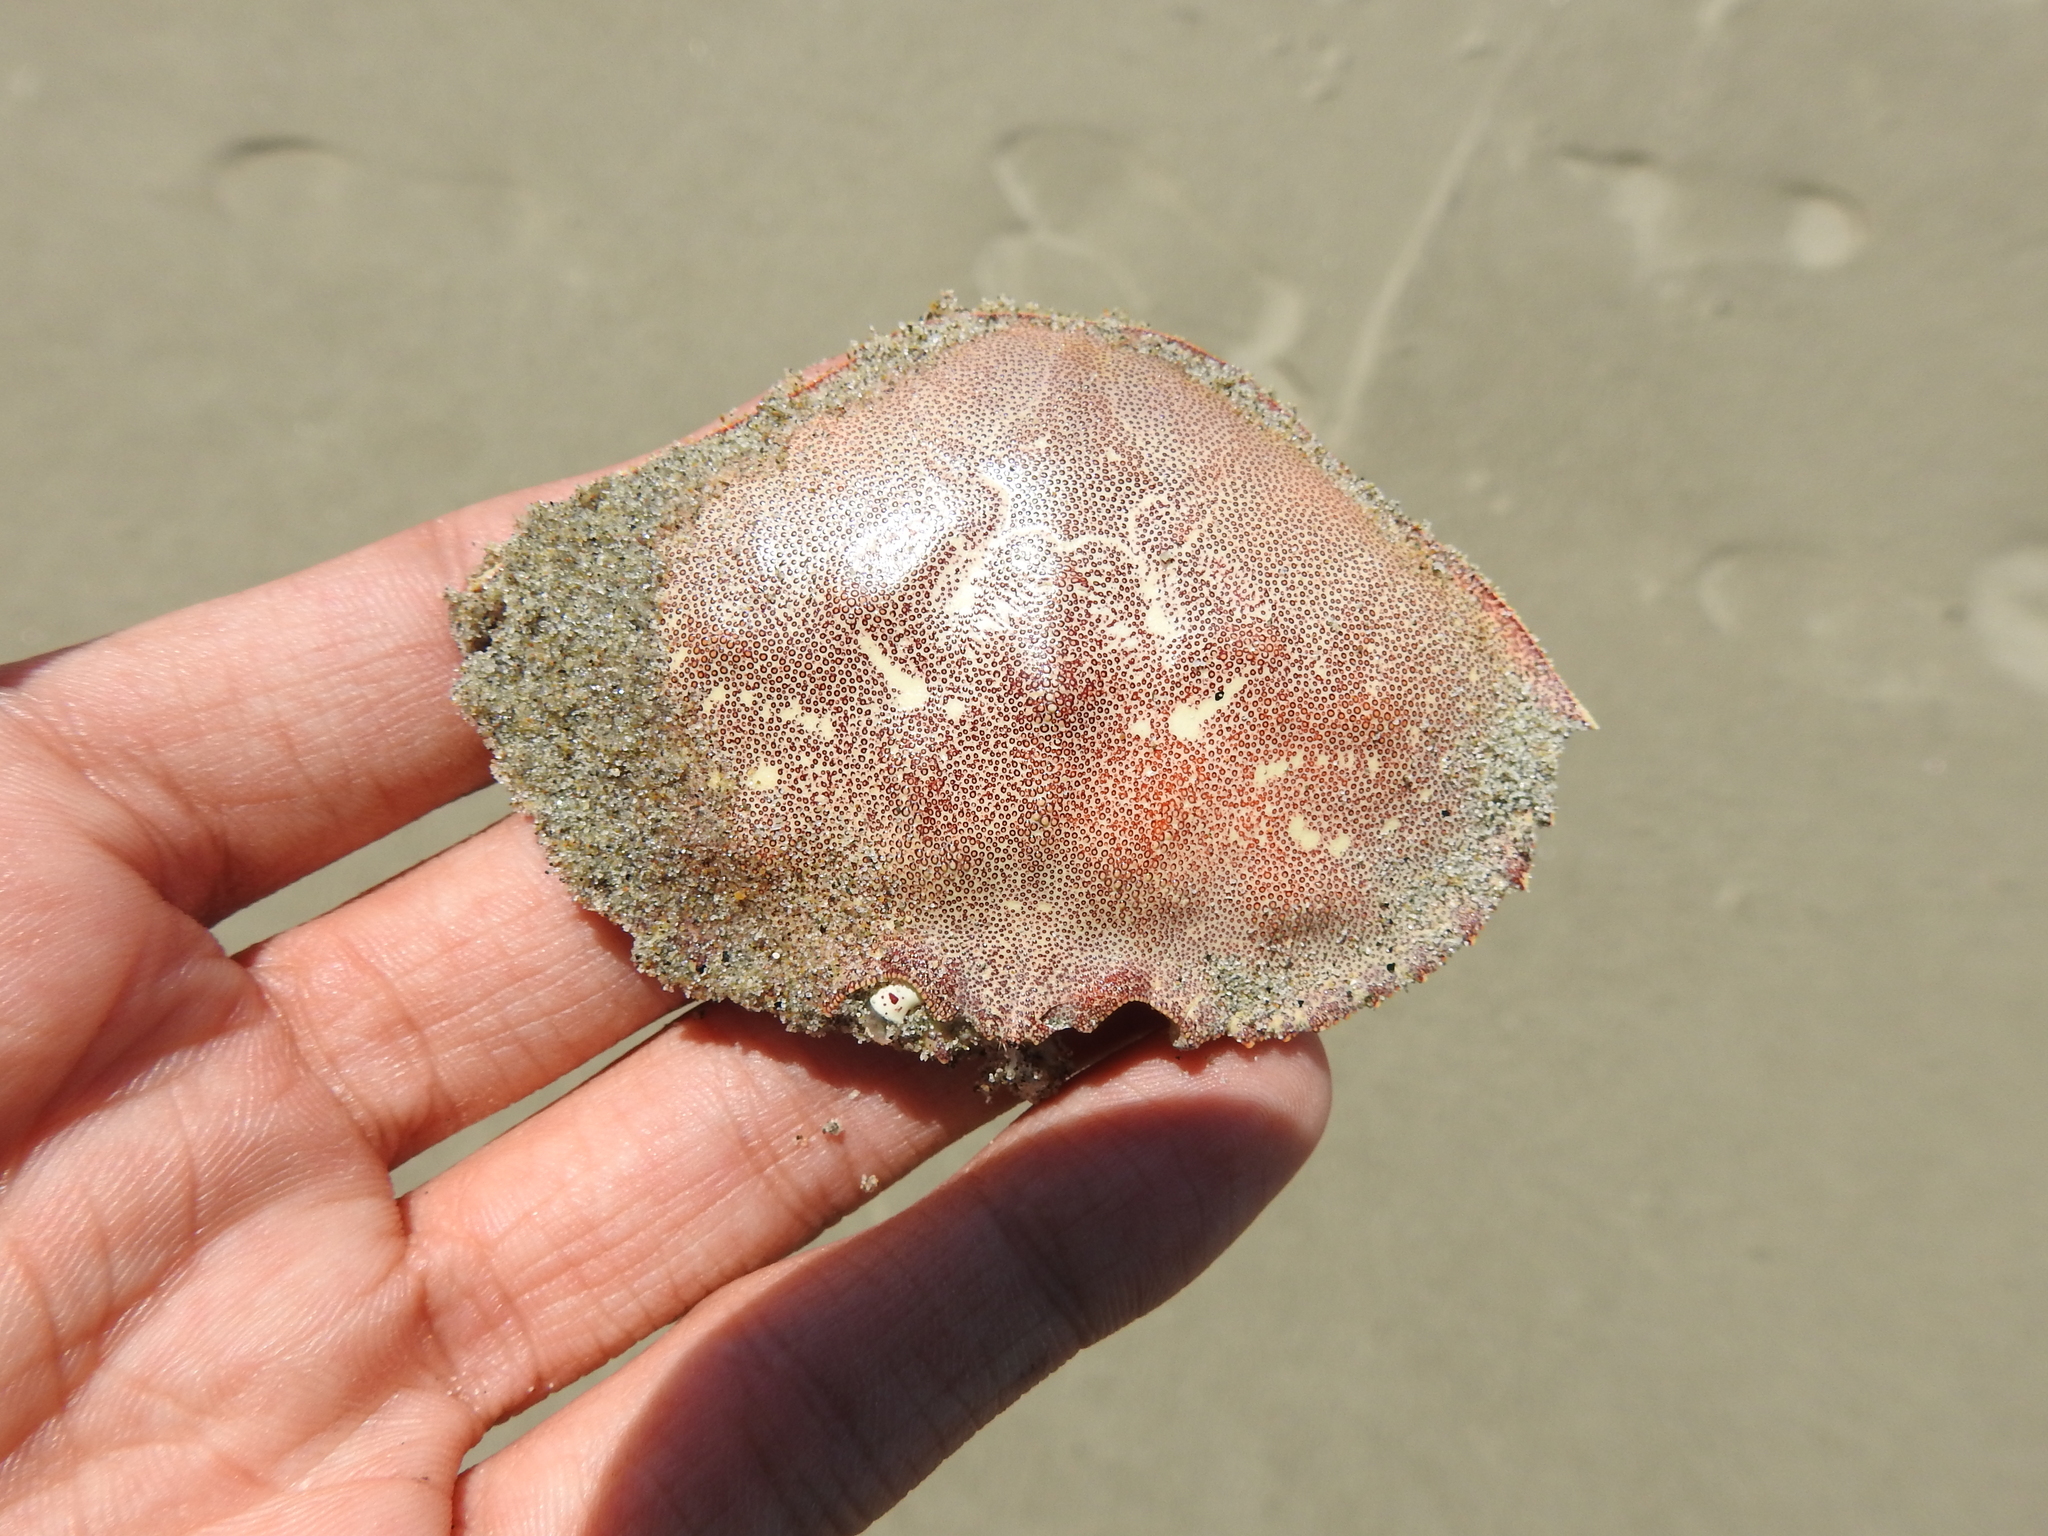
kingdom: Animalia
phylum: Arthropoda
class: Malacostraca
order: Decapoda
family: Cancridae
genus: Metacarcinus
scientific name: Metacarcinus magister
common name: Californian crab
